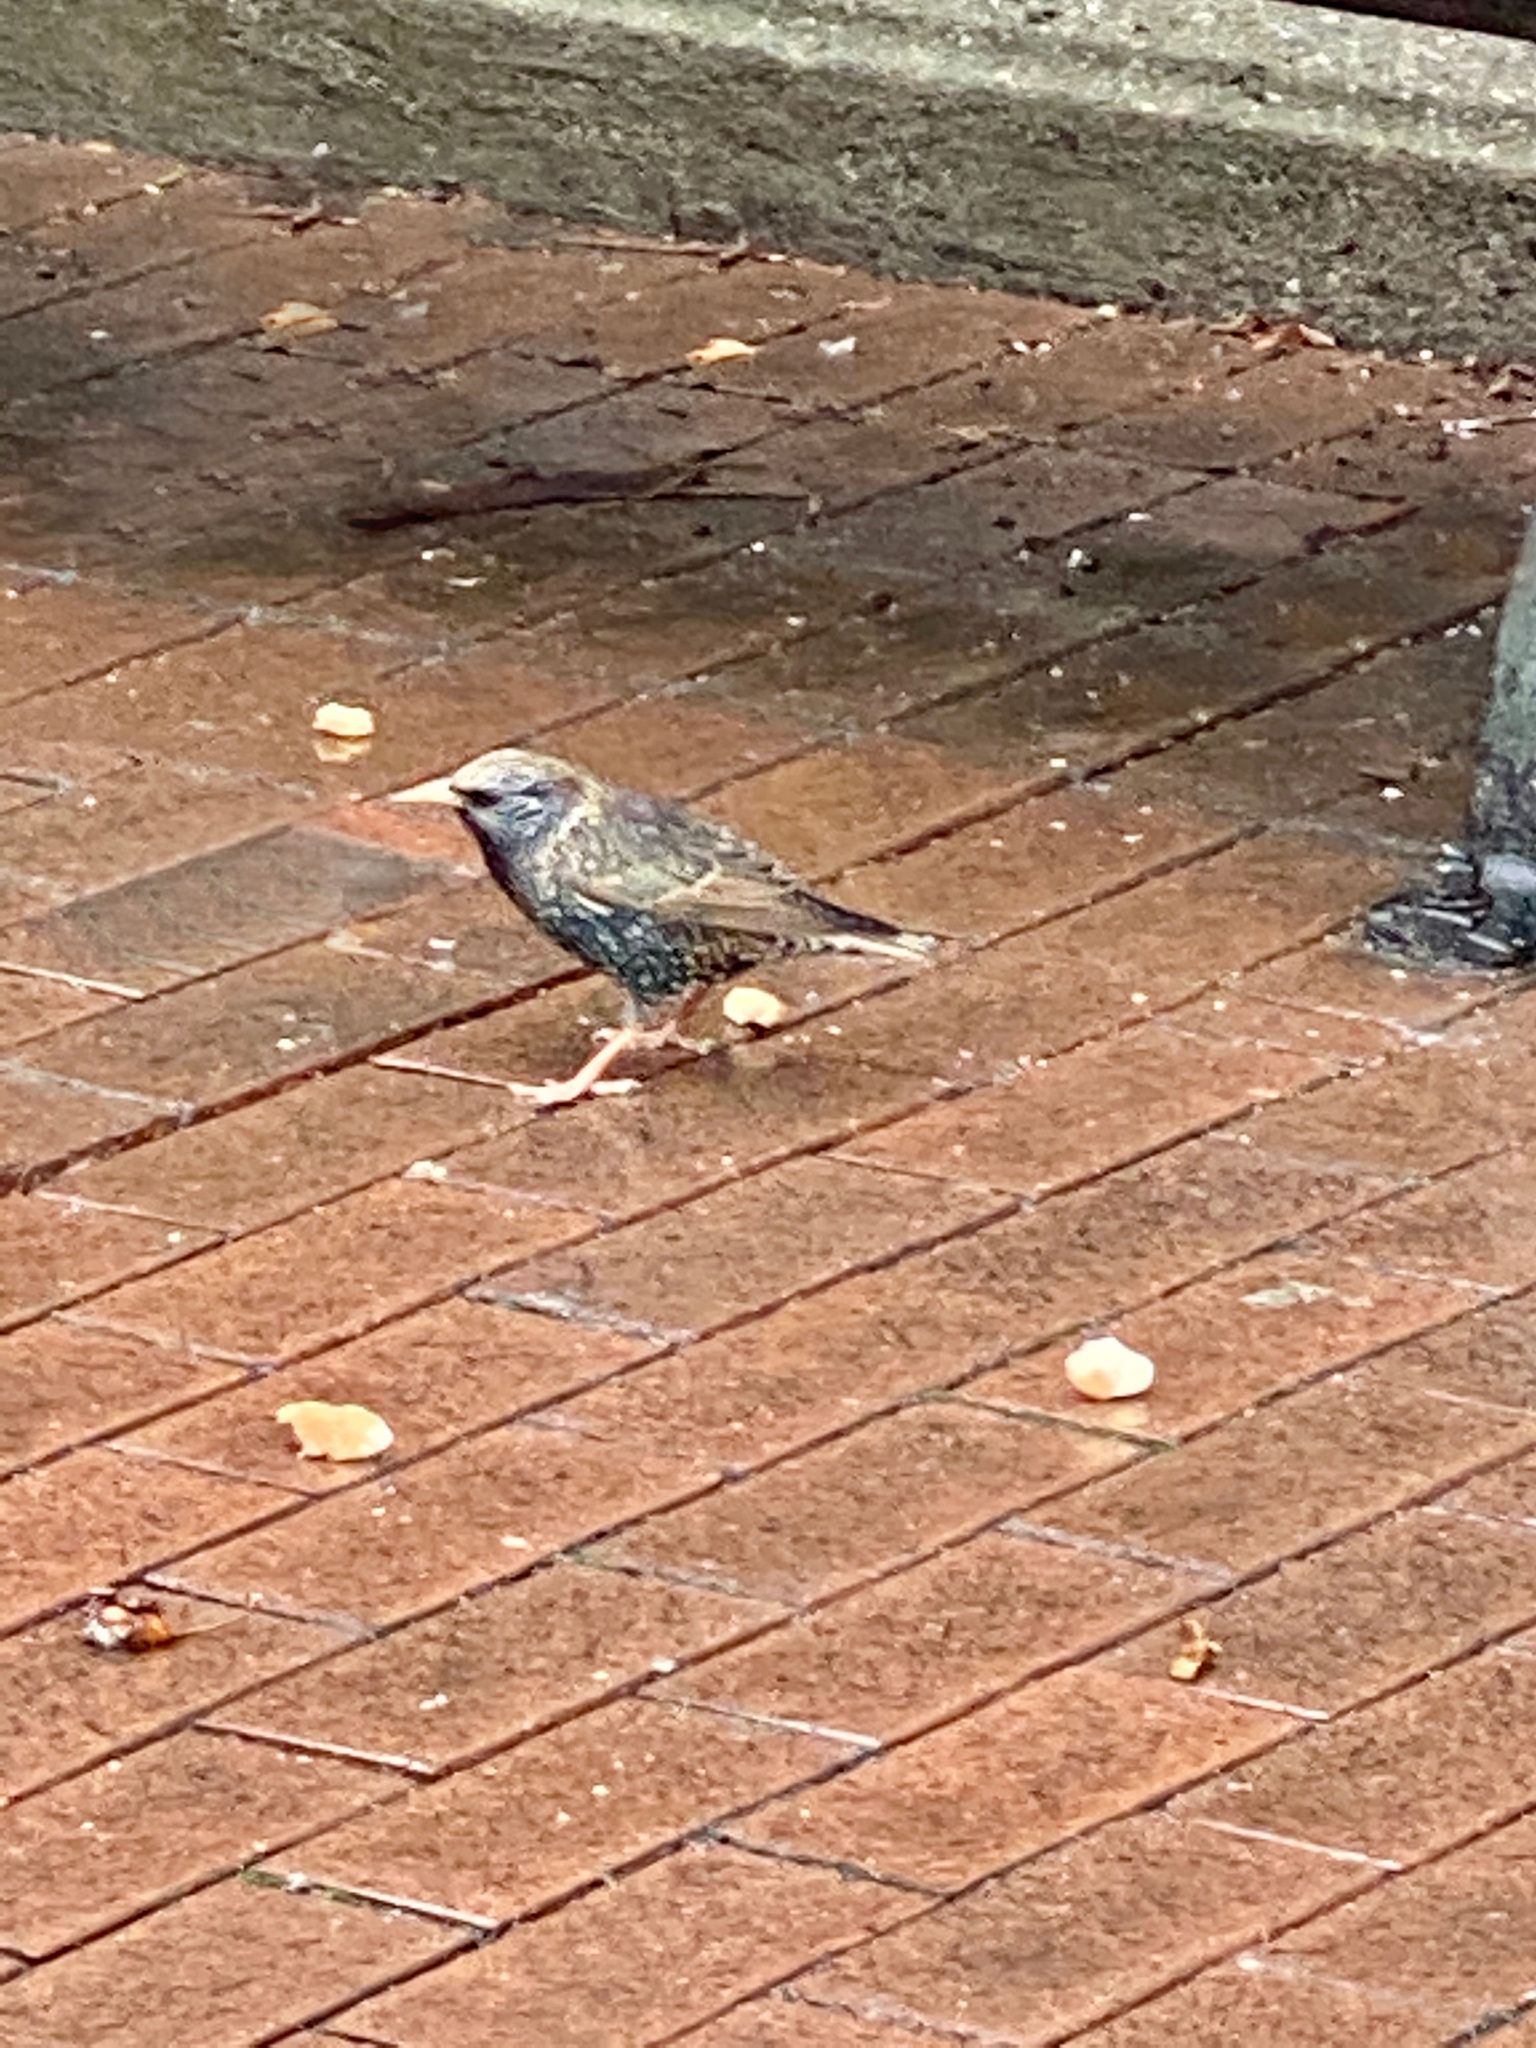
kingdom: Animalia
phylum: Chordata
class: Aves
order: Passeriformes
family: Sturnidae
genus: Sturnus
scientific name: Sturnus vulgaris
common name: Common starling
